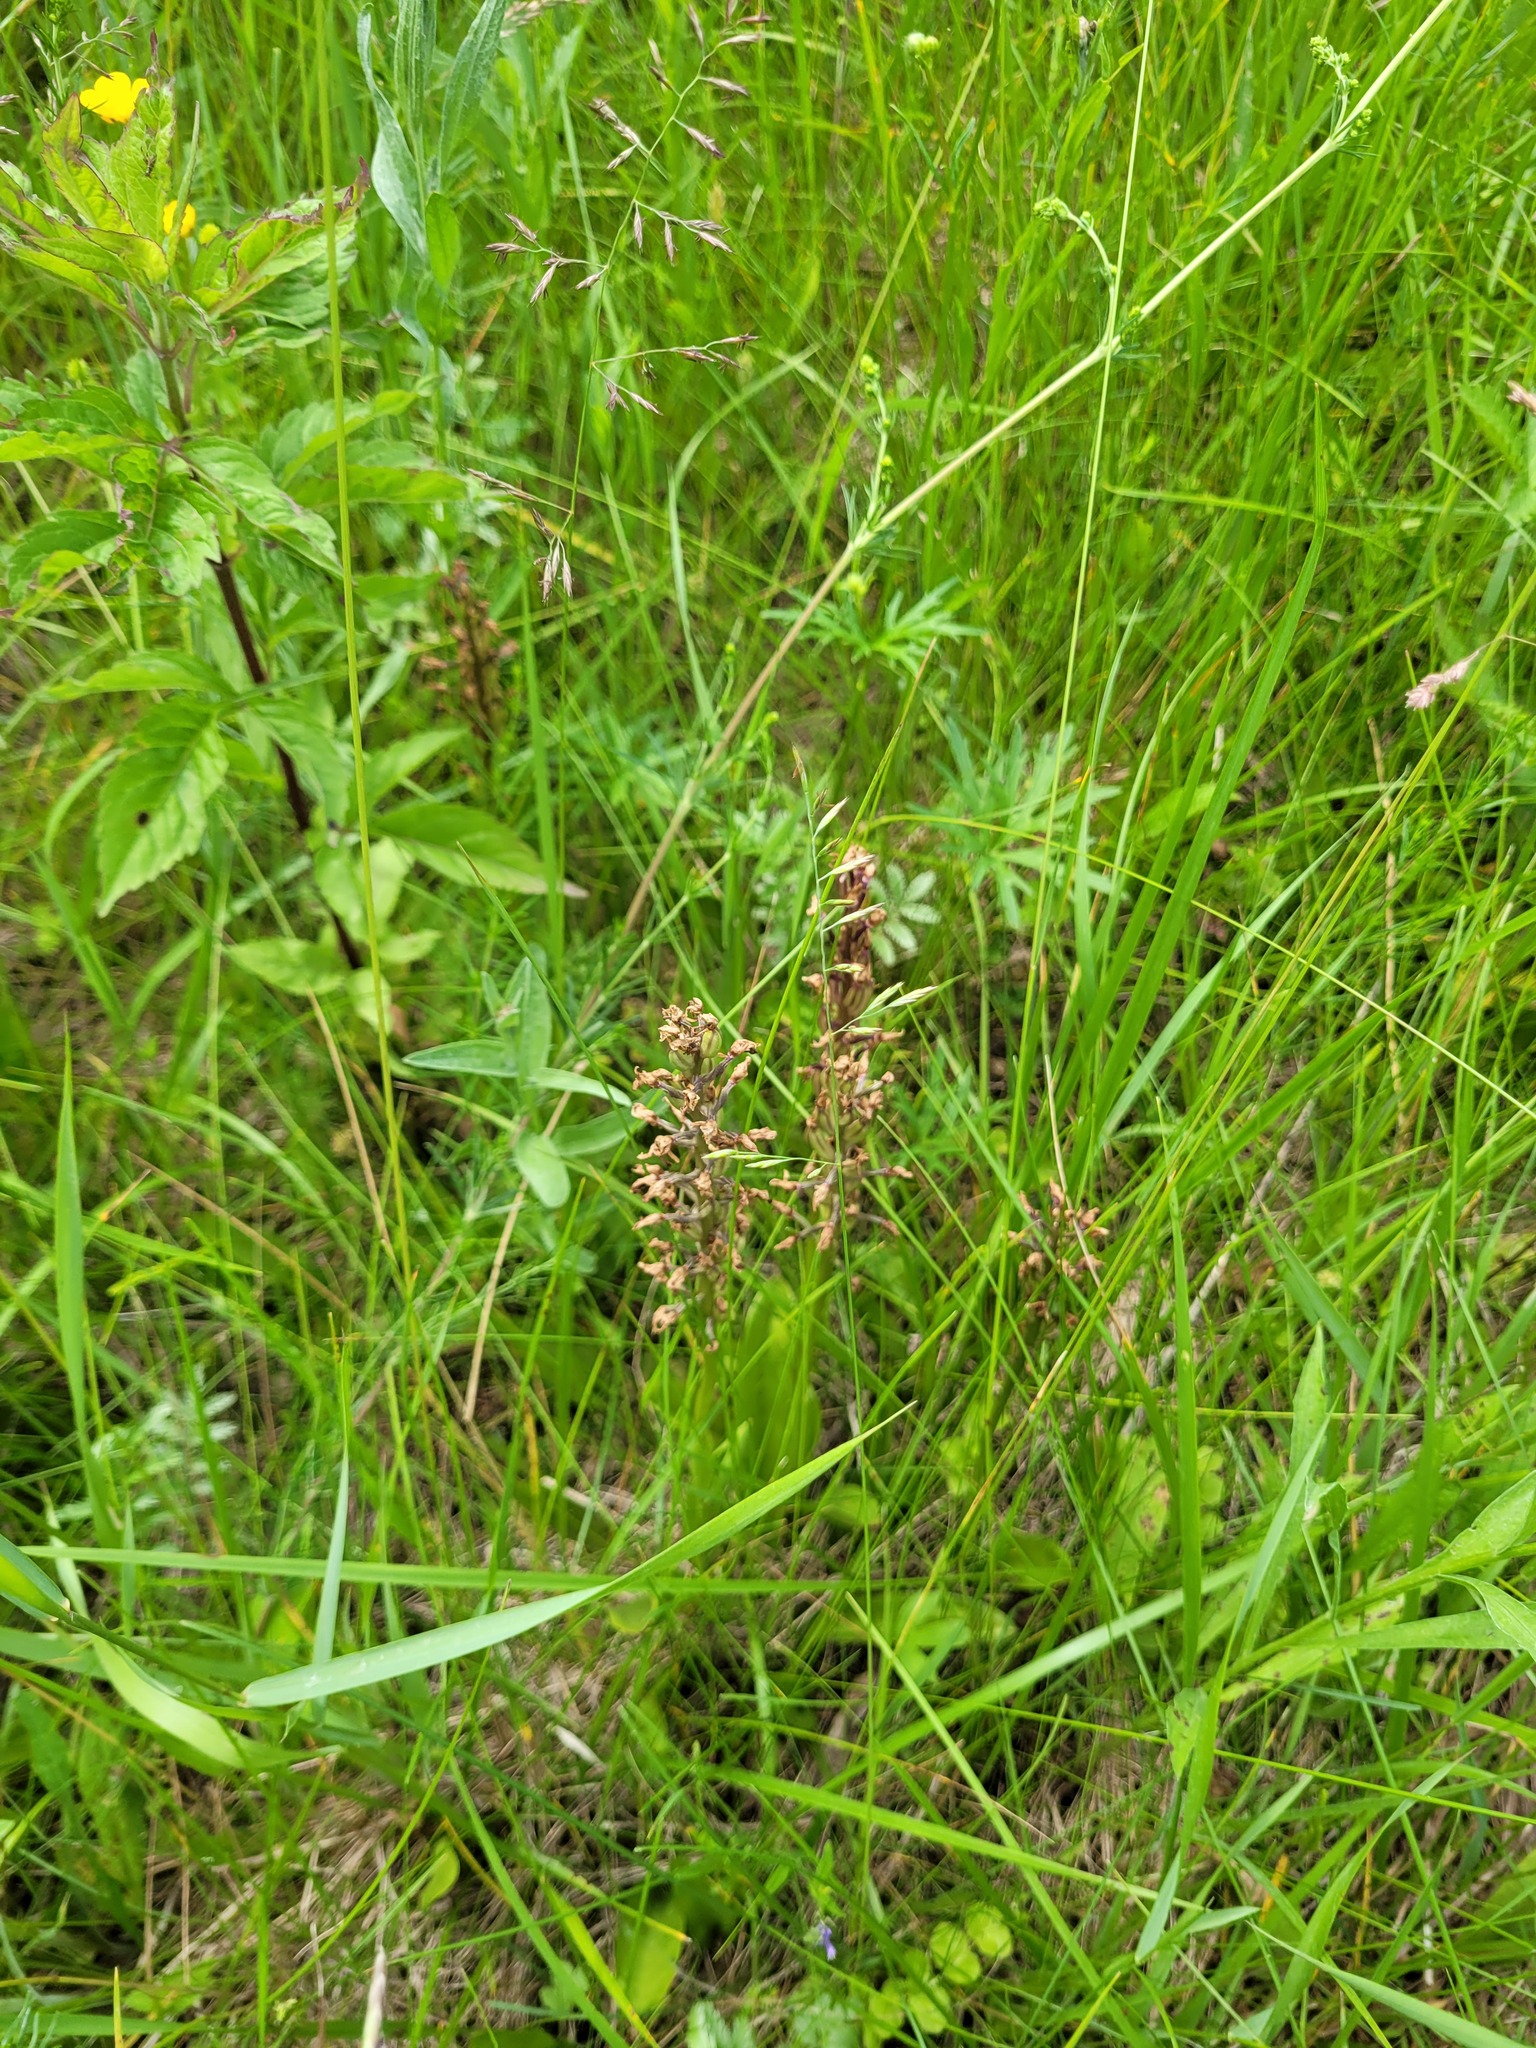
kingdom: Plantae
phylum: Tracheophyta
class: Liliopsida
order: Asparagales
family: Orchidaceae
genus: Orchis
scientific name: Orchis militaris
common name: Military orchid
